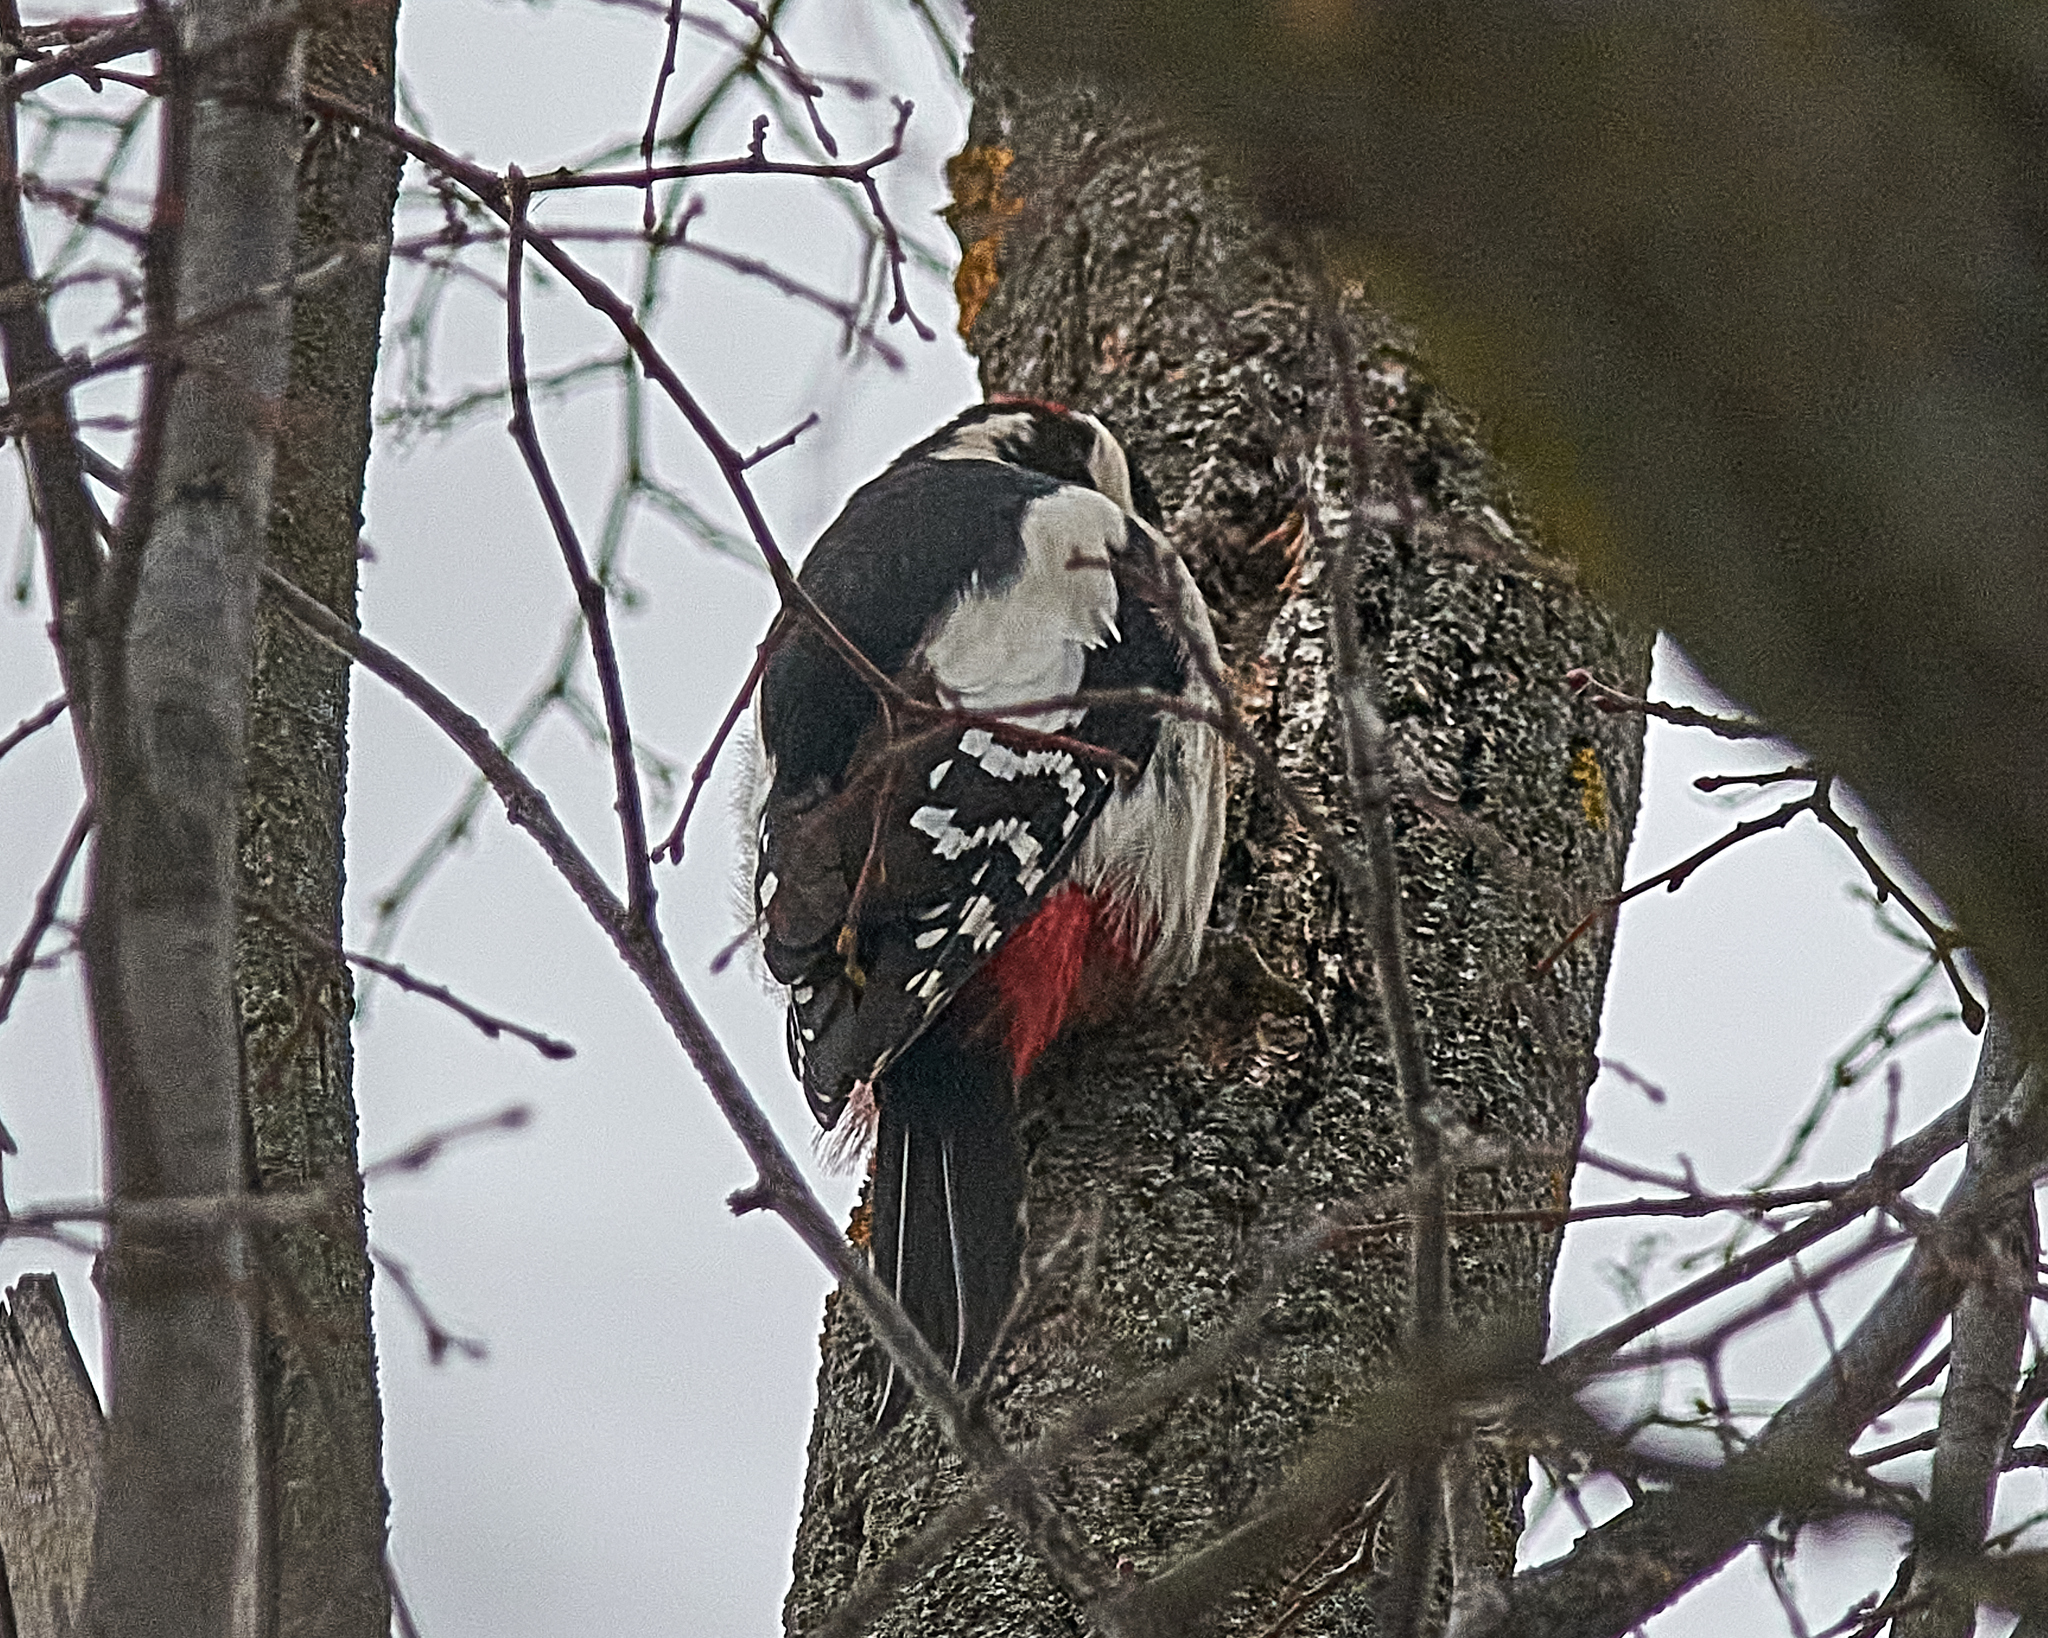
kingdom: Animalia
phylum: Chordata
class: Aves
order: Piciformes
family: Picidae
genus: Dendrocopos
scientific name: Dendrocopos major
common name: Great spotted woodpecker
